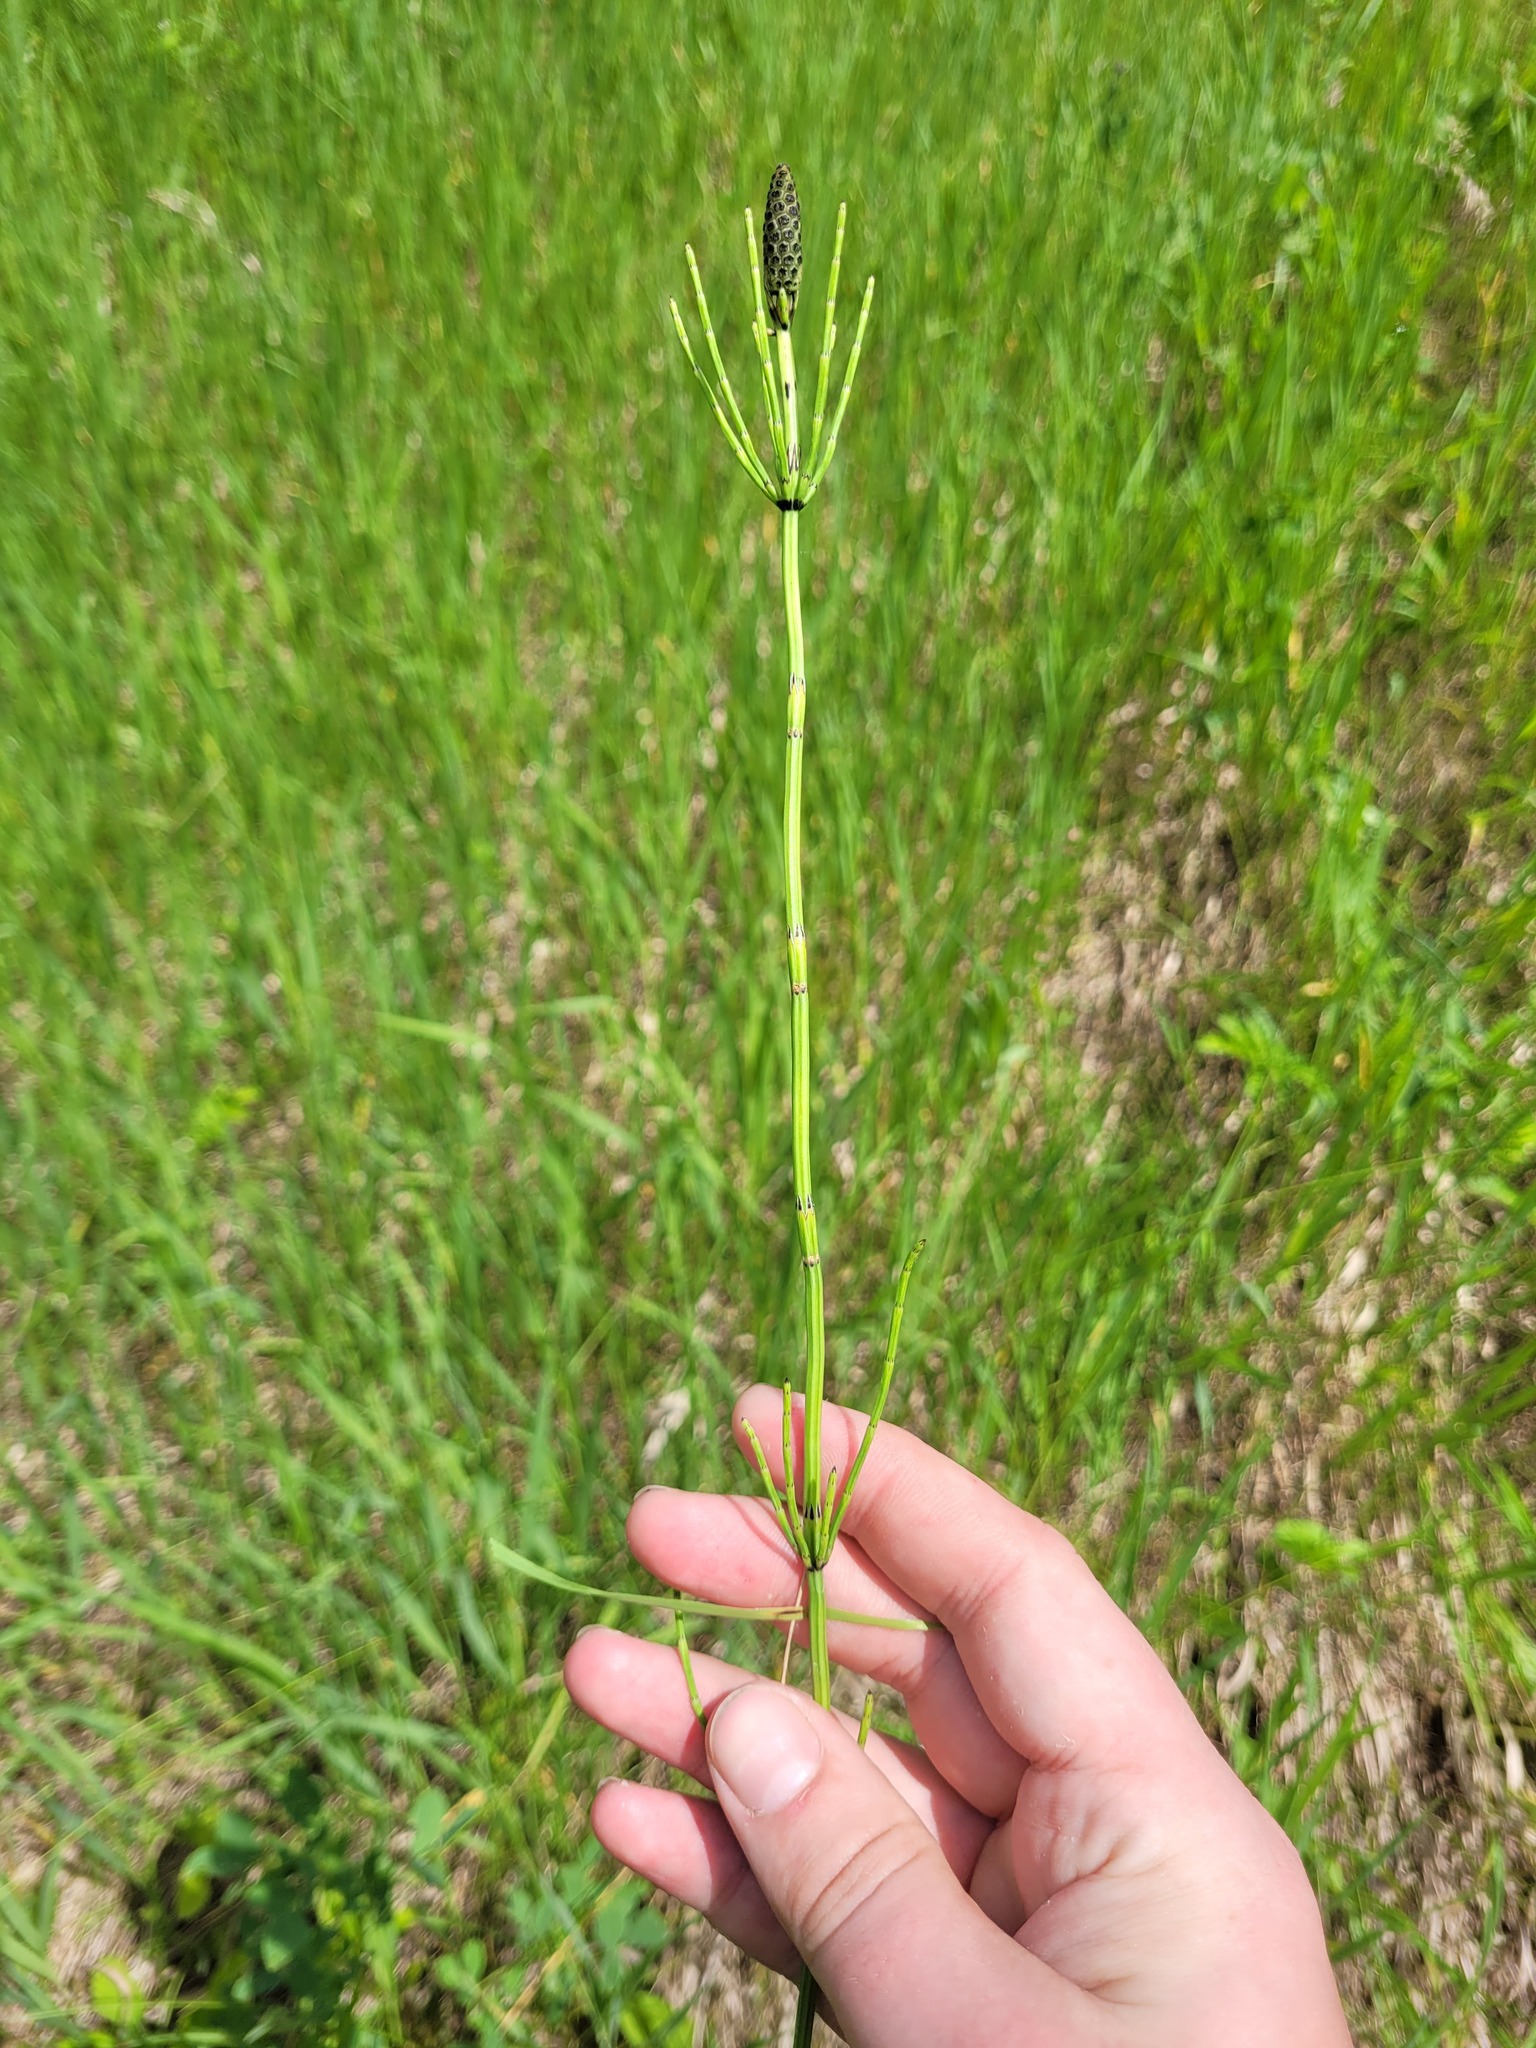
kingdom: Plantae
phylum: Tracheophyta
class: Polypodiopsida
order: Equisetales
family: Equisetaceae
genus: Equisetum
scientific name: Equisetum palustre
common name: Marsh horsetail
